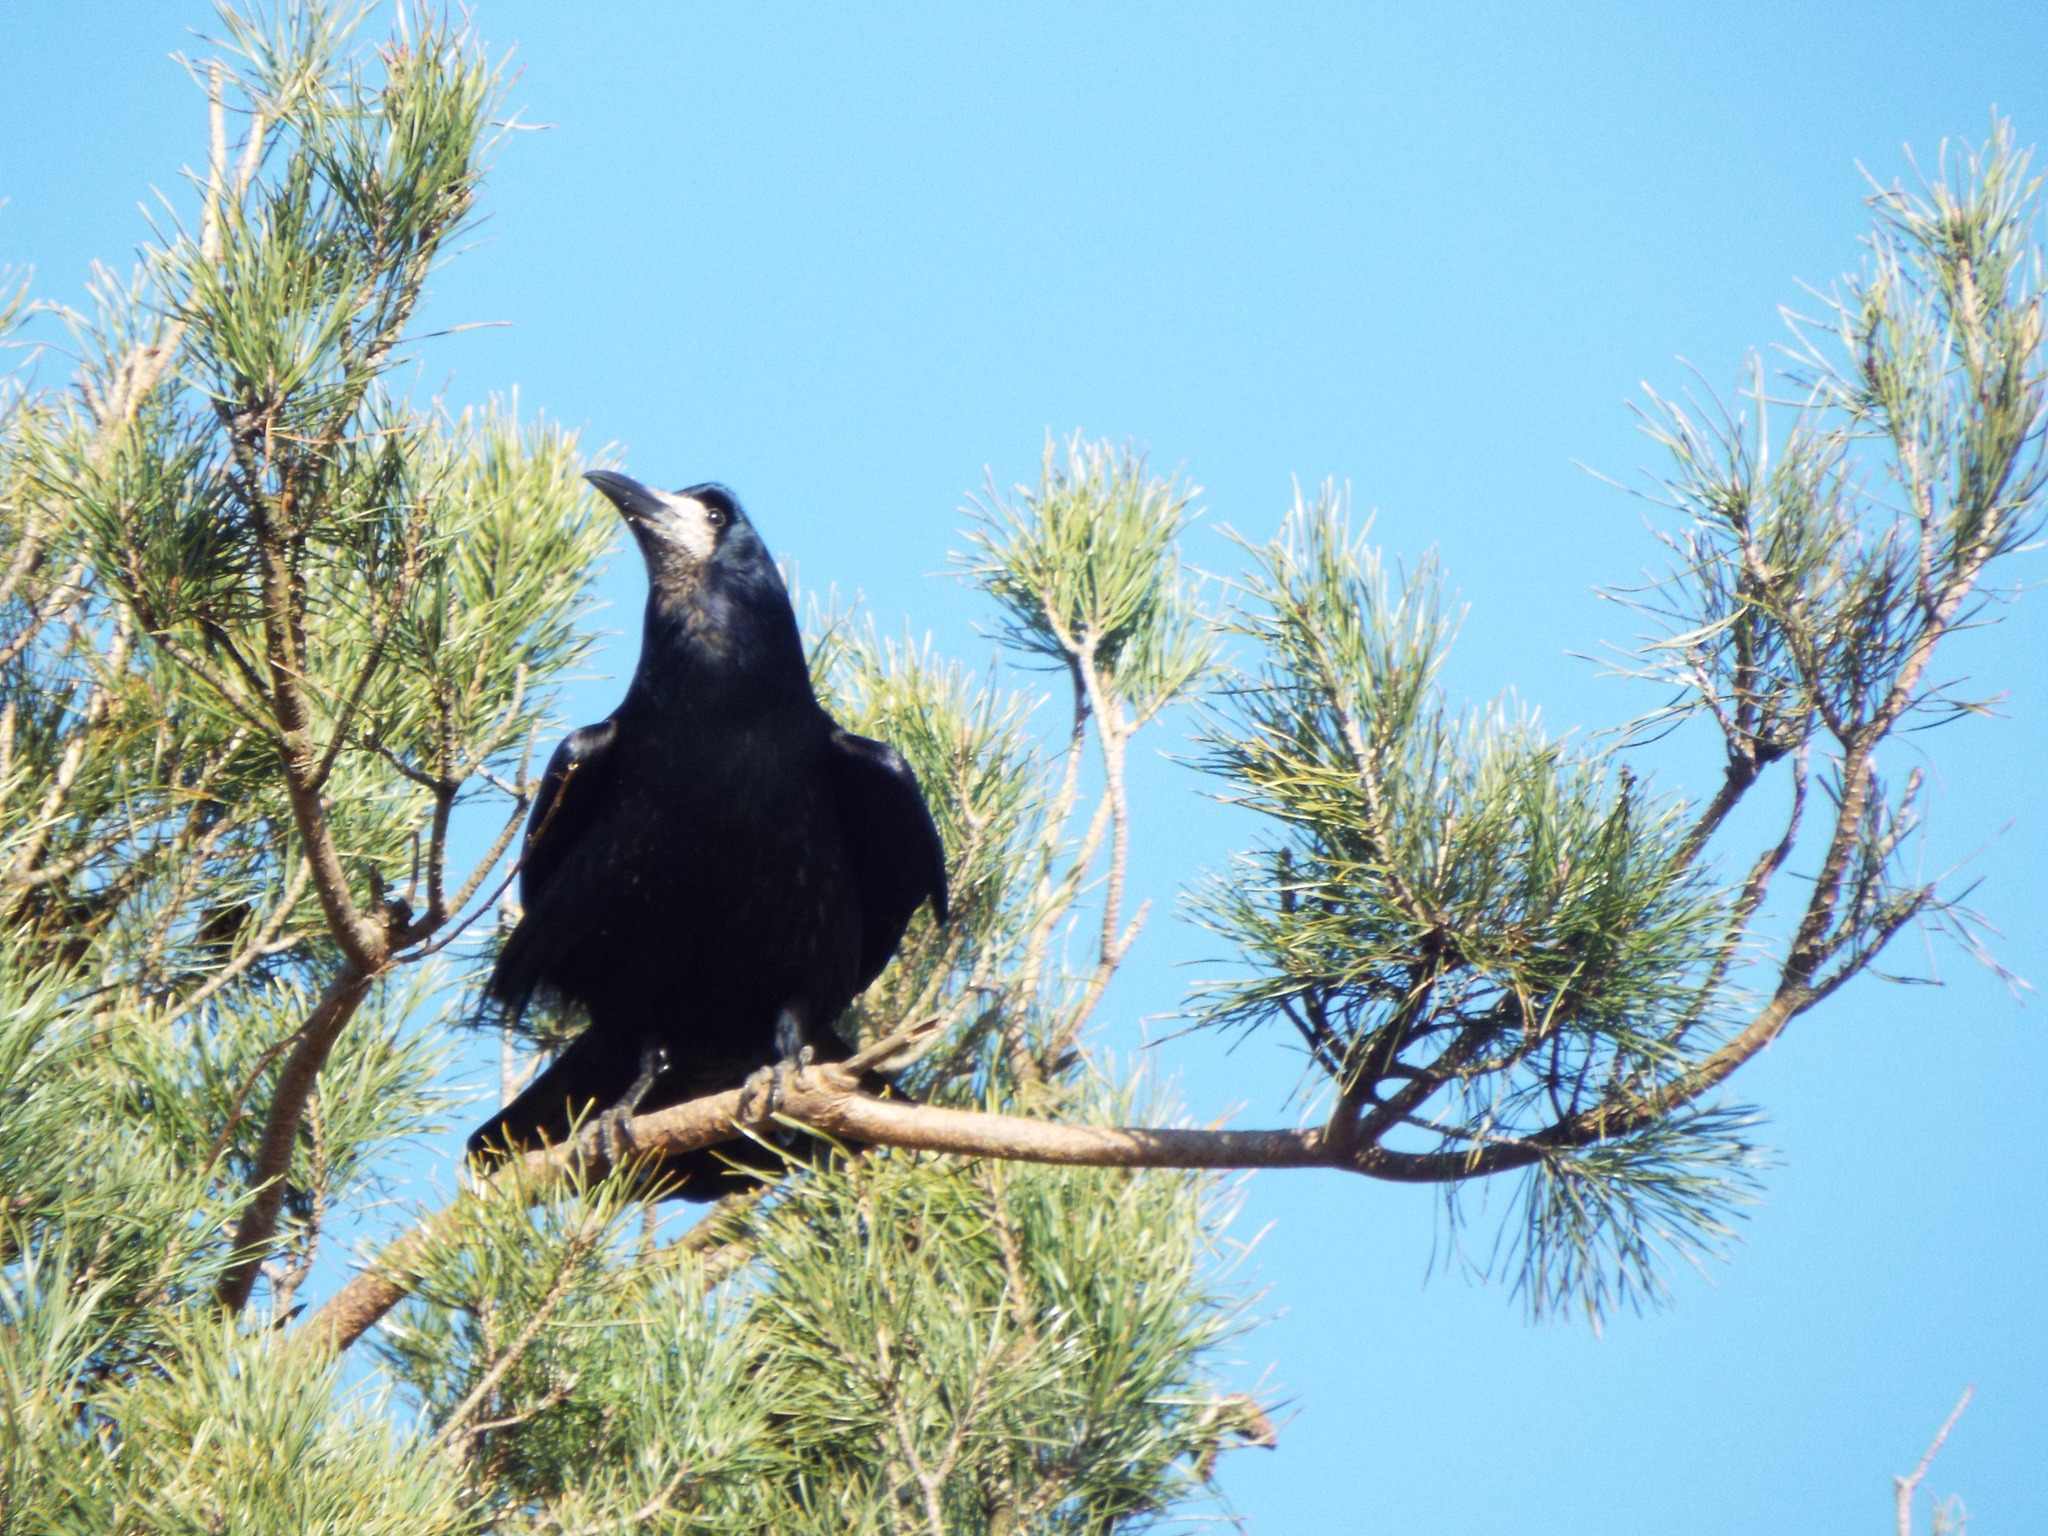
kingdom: Animalia
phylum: Chordata
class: Aves
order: Passeriformes
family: Corvidae
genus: Corvus
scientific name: Corvus frugilegus
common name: Rook
